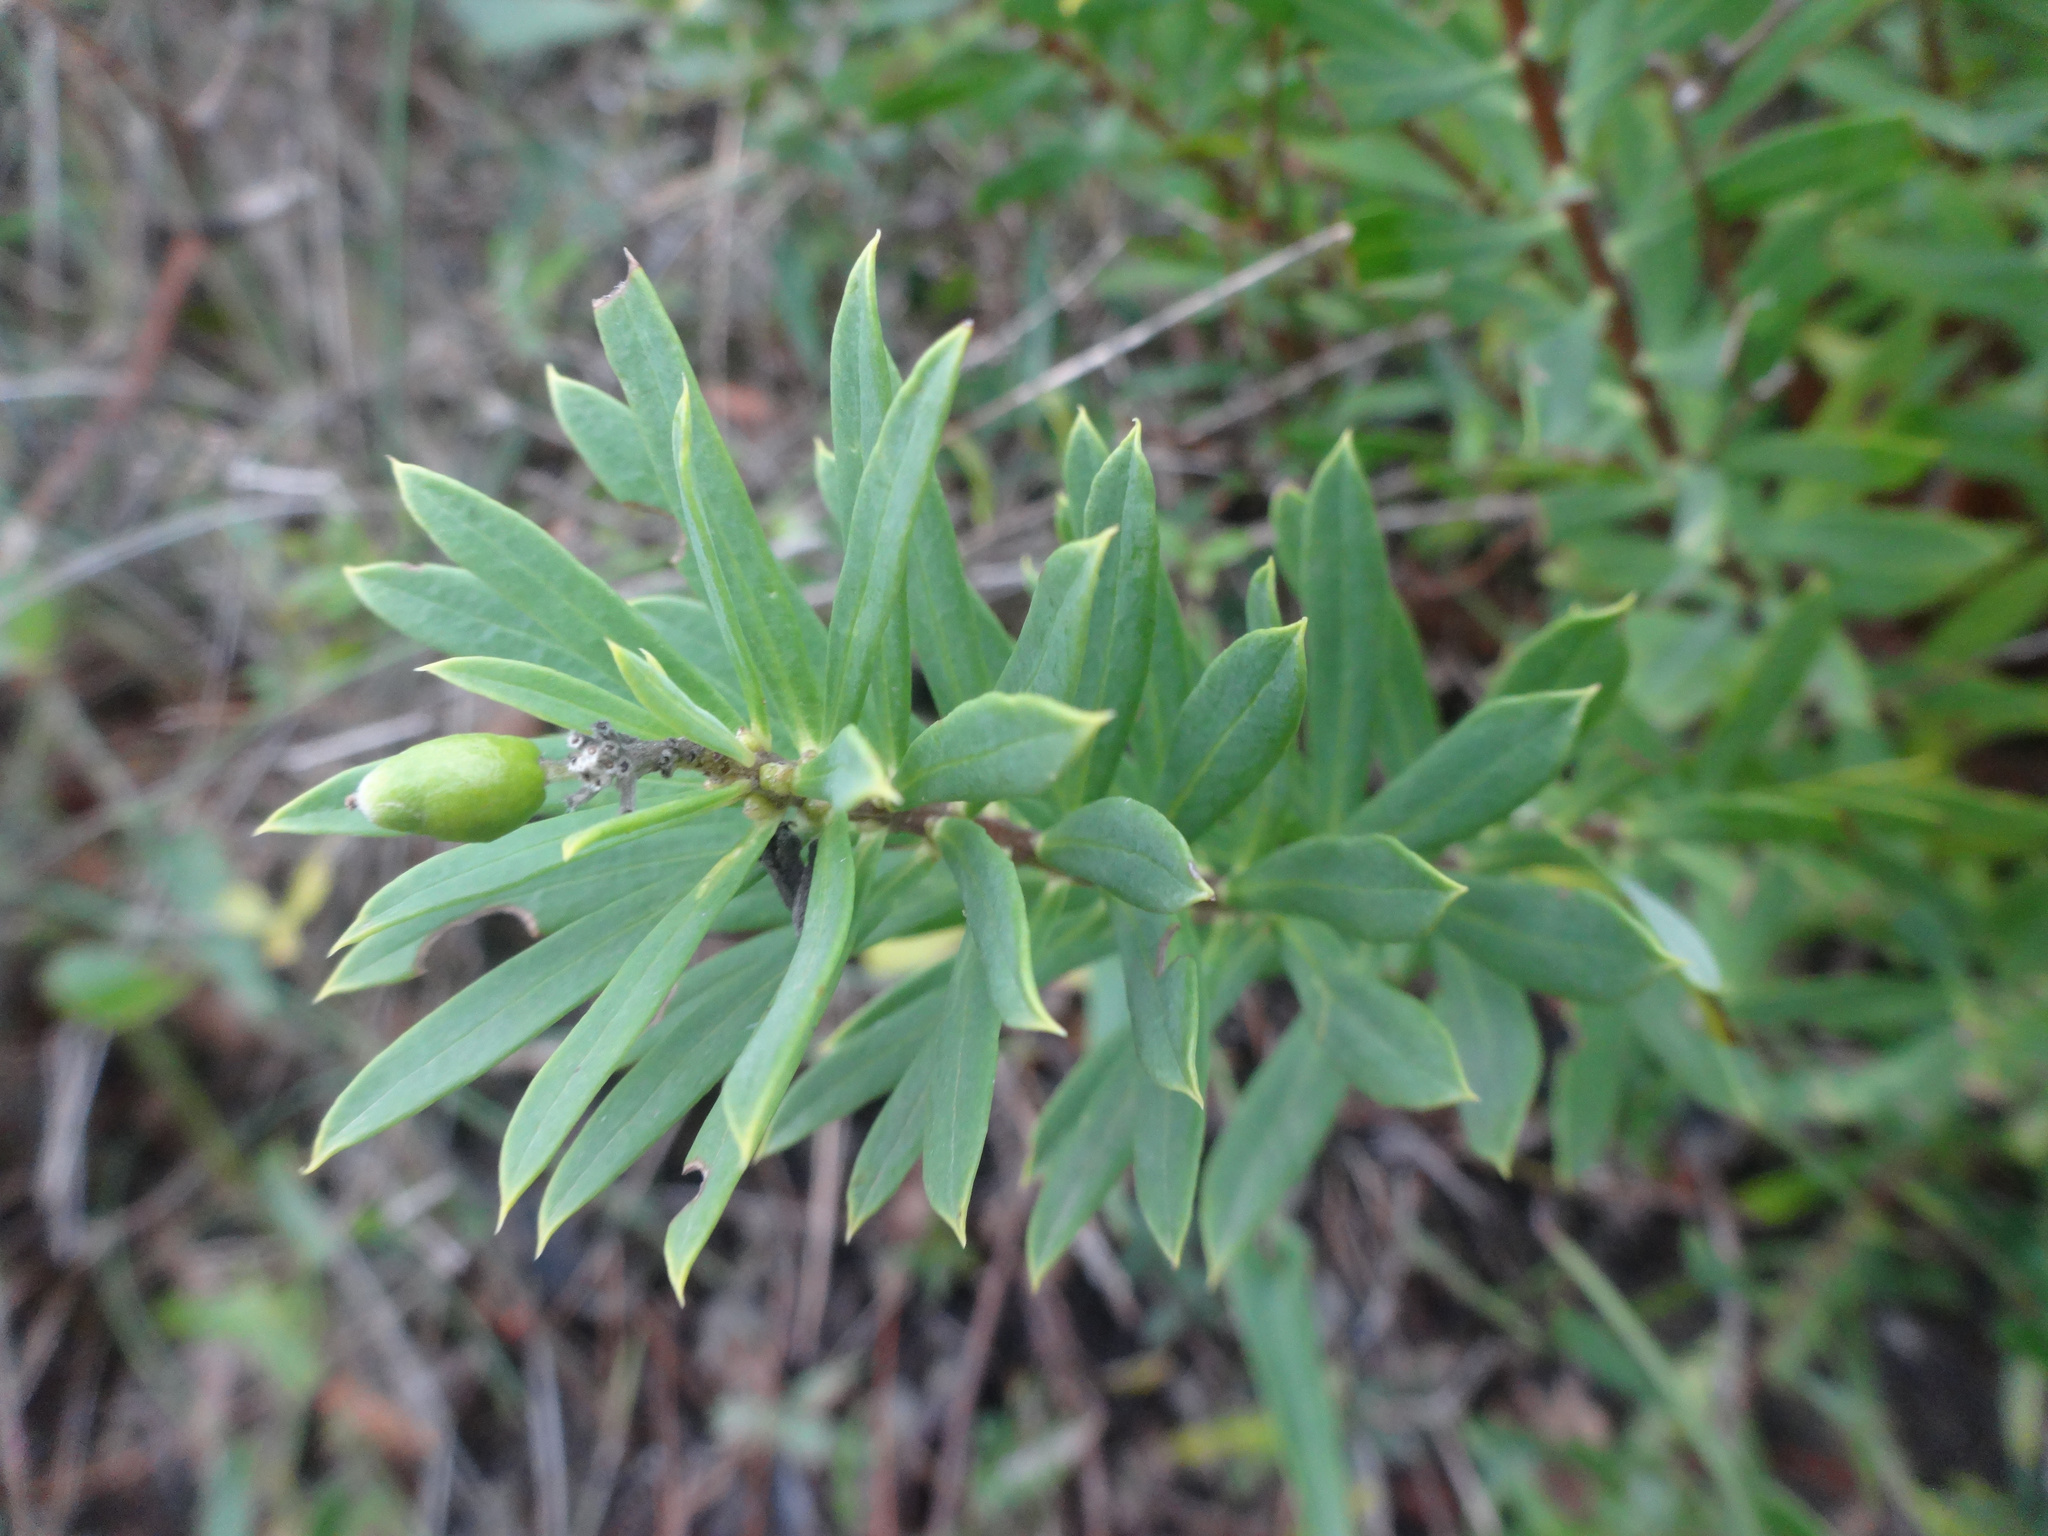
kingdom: Plantae
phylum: Tracheophyta
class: Magnoliopsida
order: Malvales
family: Thymelaeaceae
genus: Daphne
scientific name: Daphne gnidium
